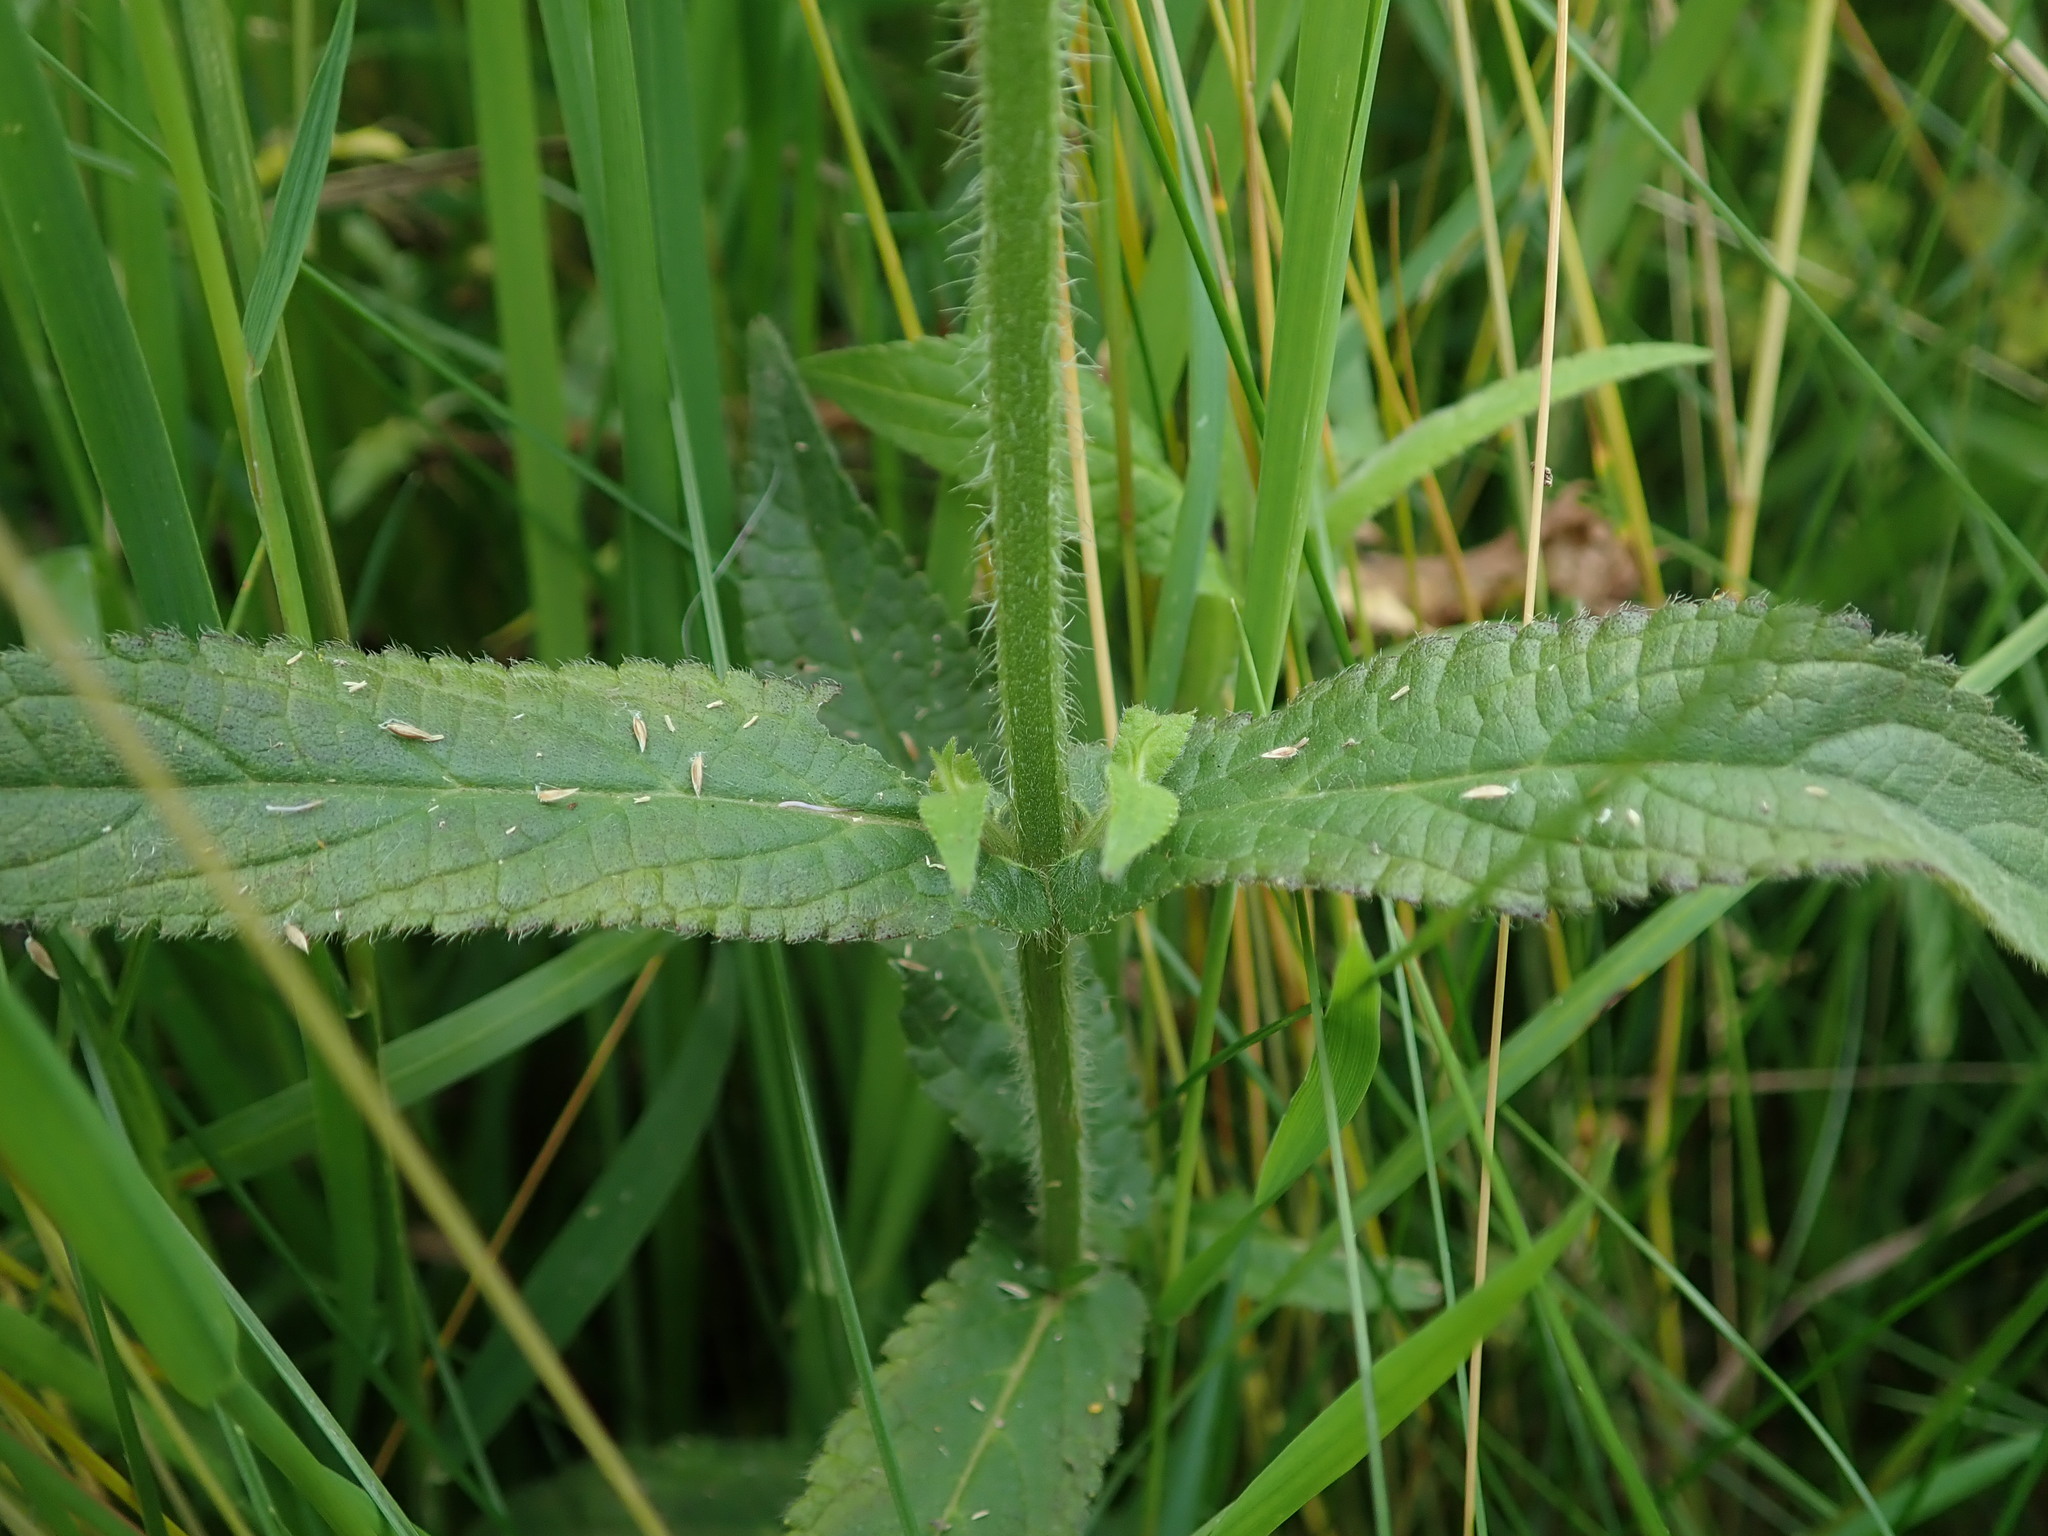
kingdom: Plantae
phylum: Tracheophyta
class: Magnoliopsida
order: Lamiales
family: Lamiaceae
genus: Stachys
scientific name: Stachys palustris
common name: Marsh woundwort
